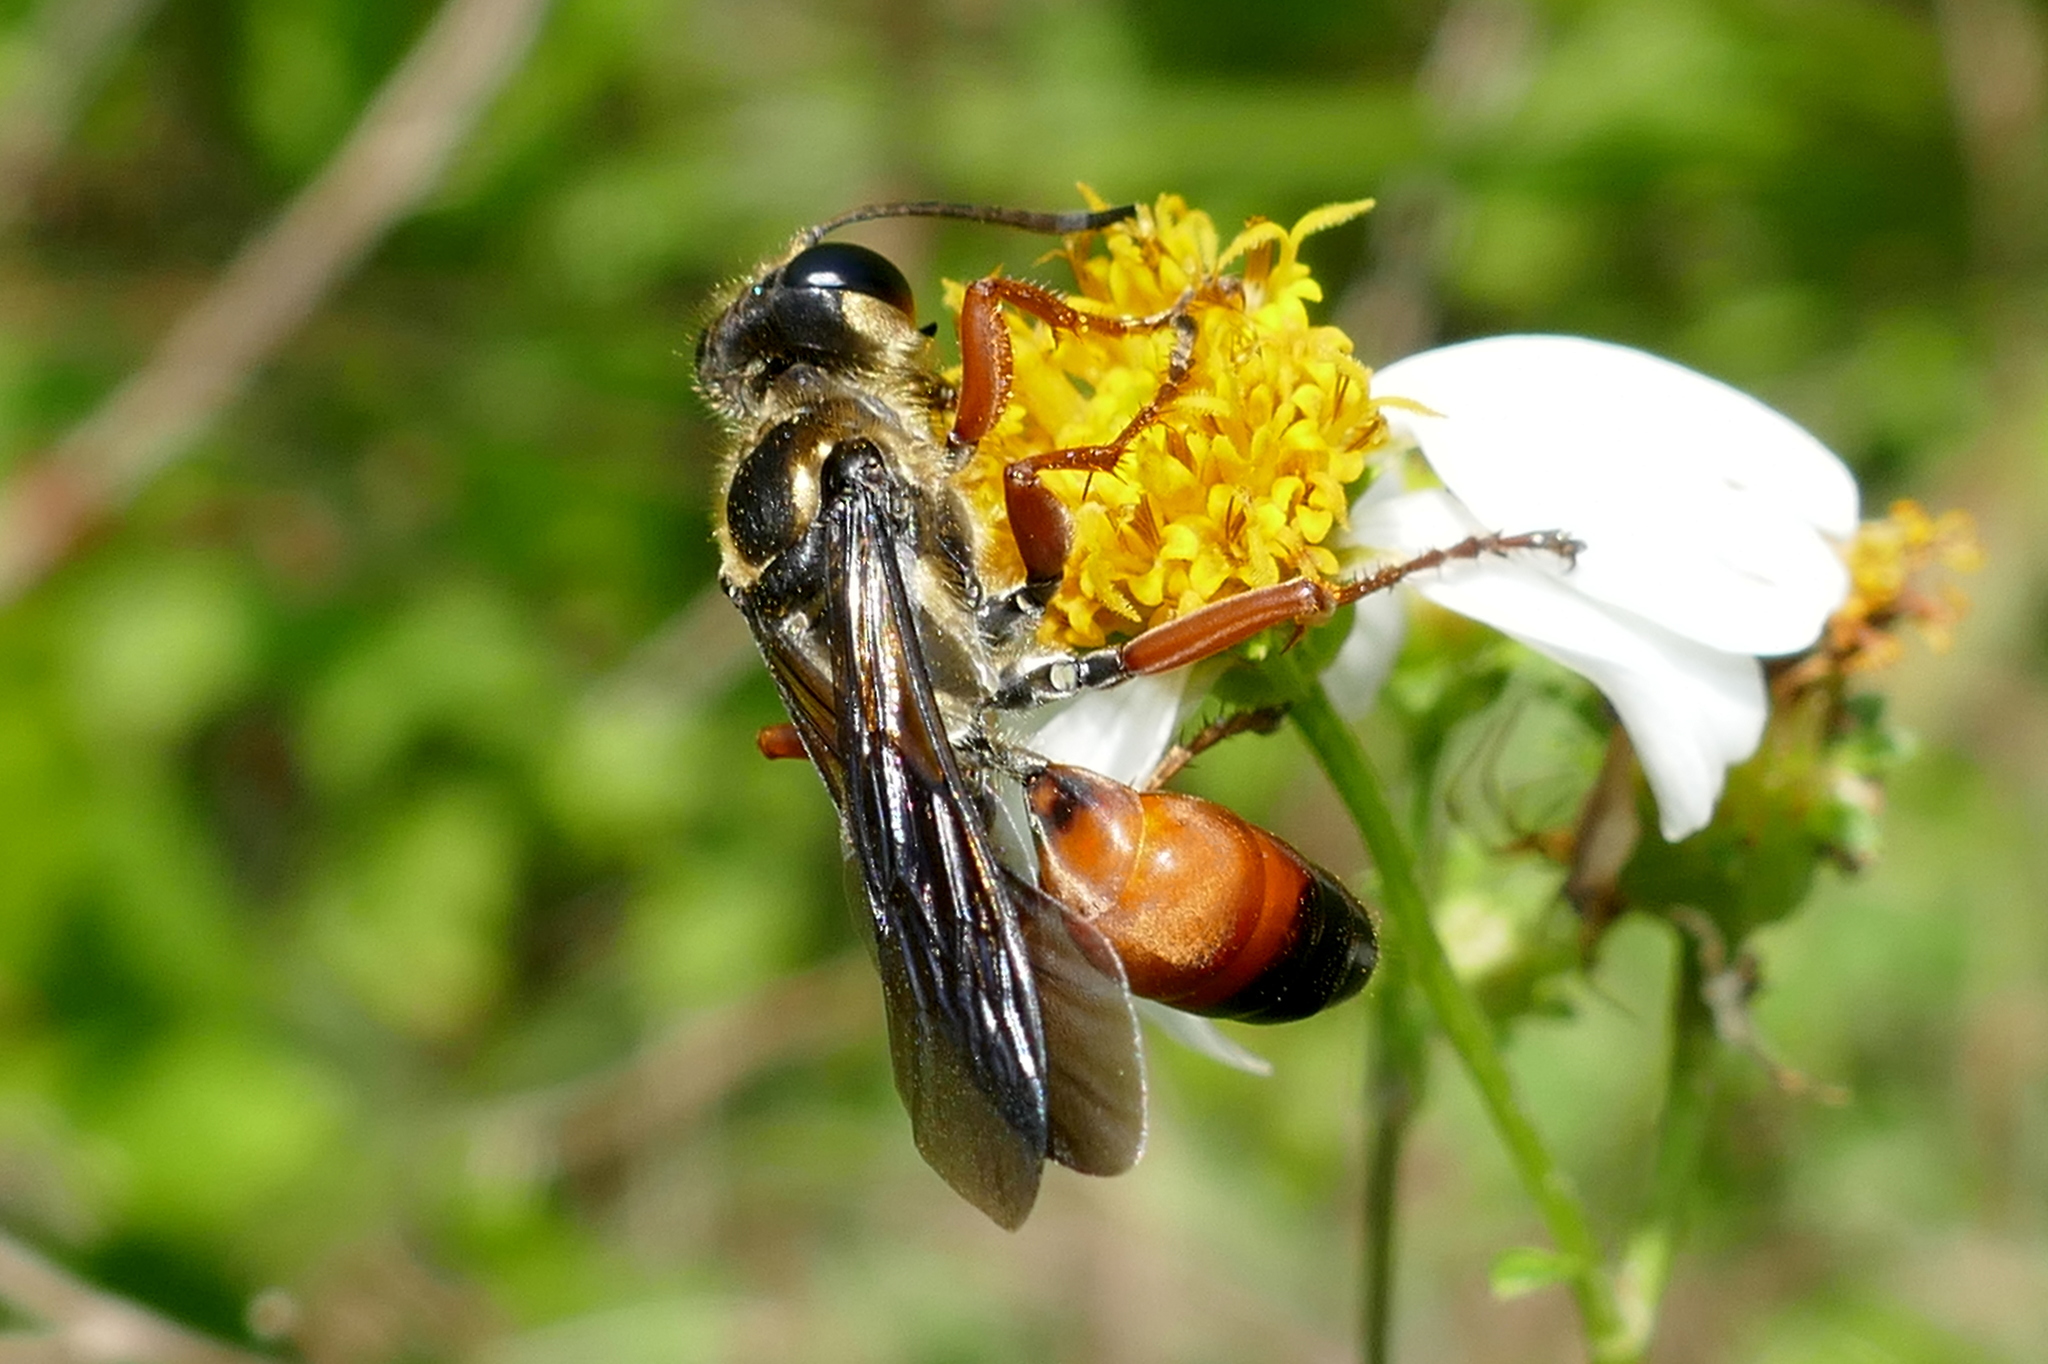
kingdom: Animalia
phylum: Arthropoda
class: Insecta
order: Hymenoptera
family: Sphecidae
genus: Sphex
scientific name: Sphex ichneumoneus
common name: Great golden digger wasp
